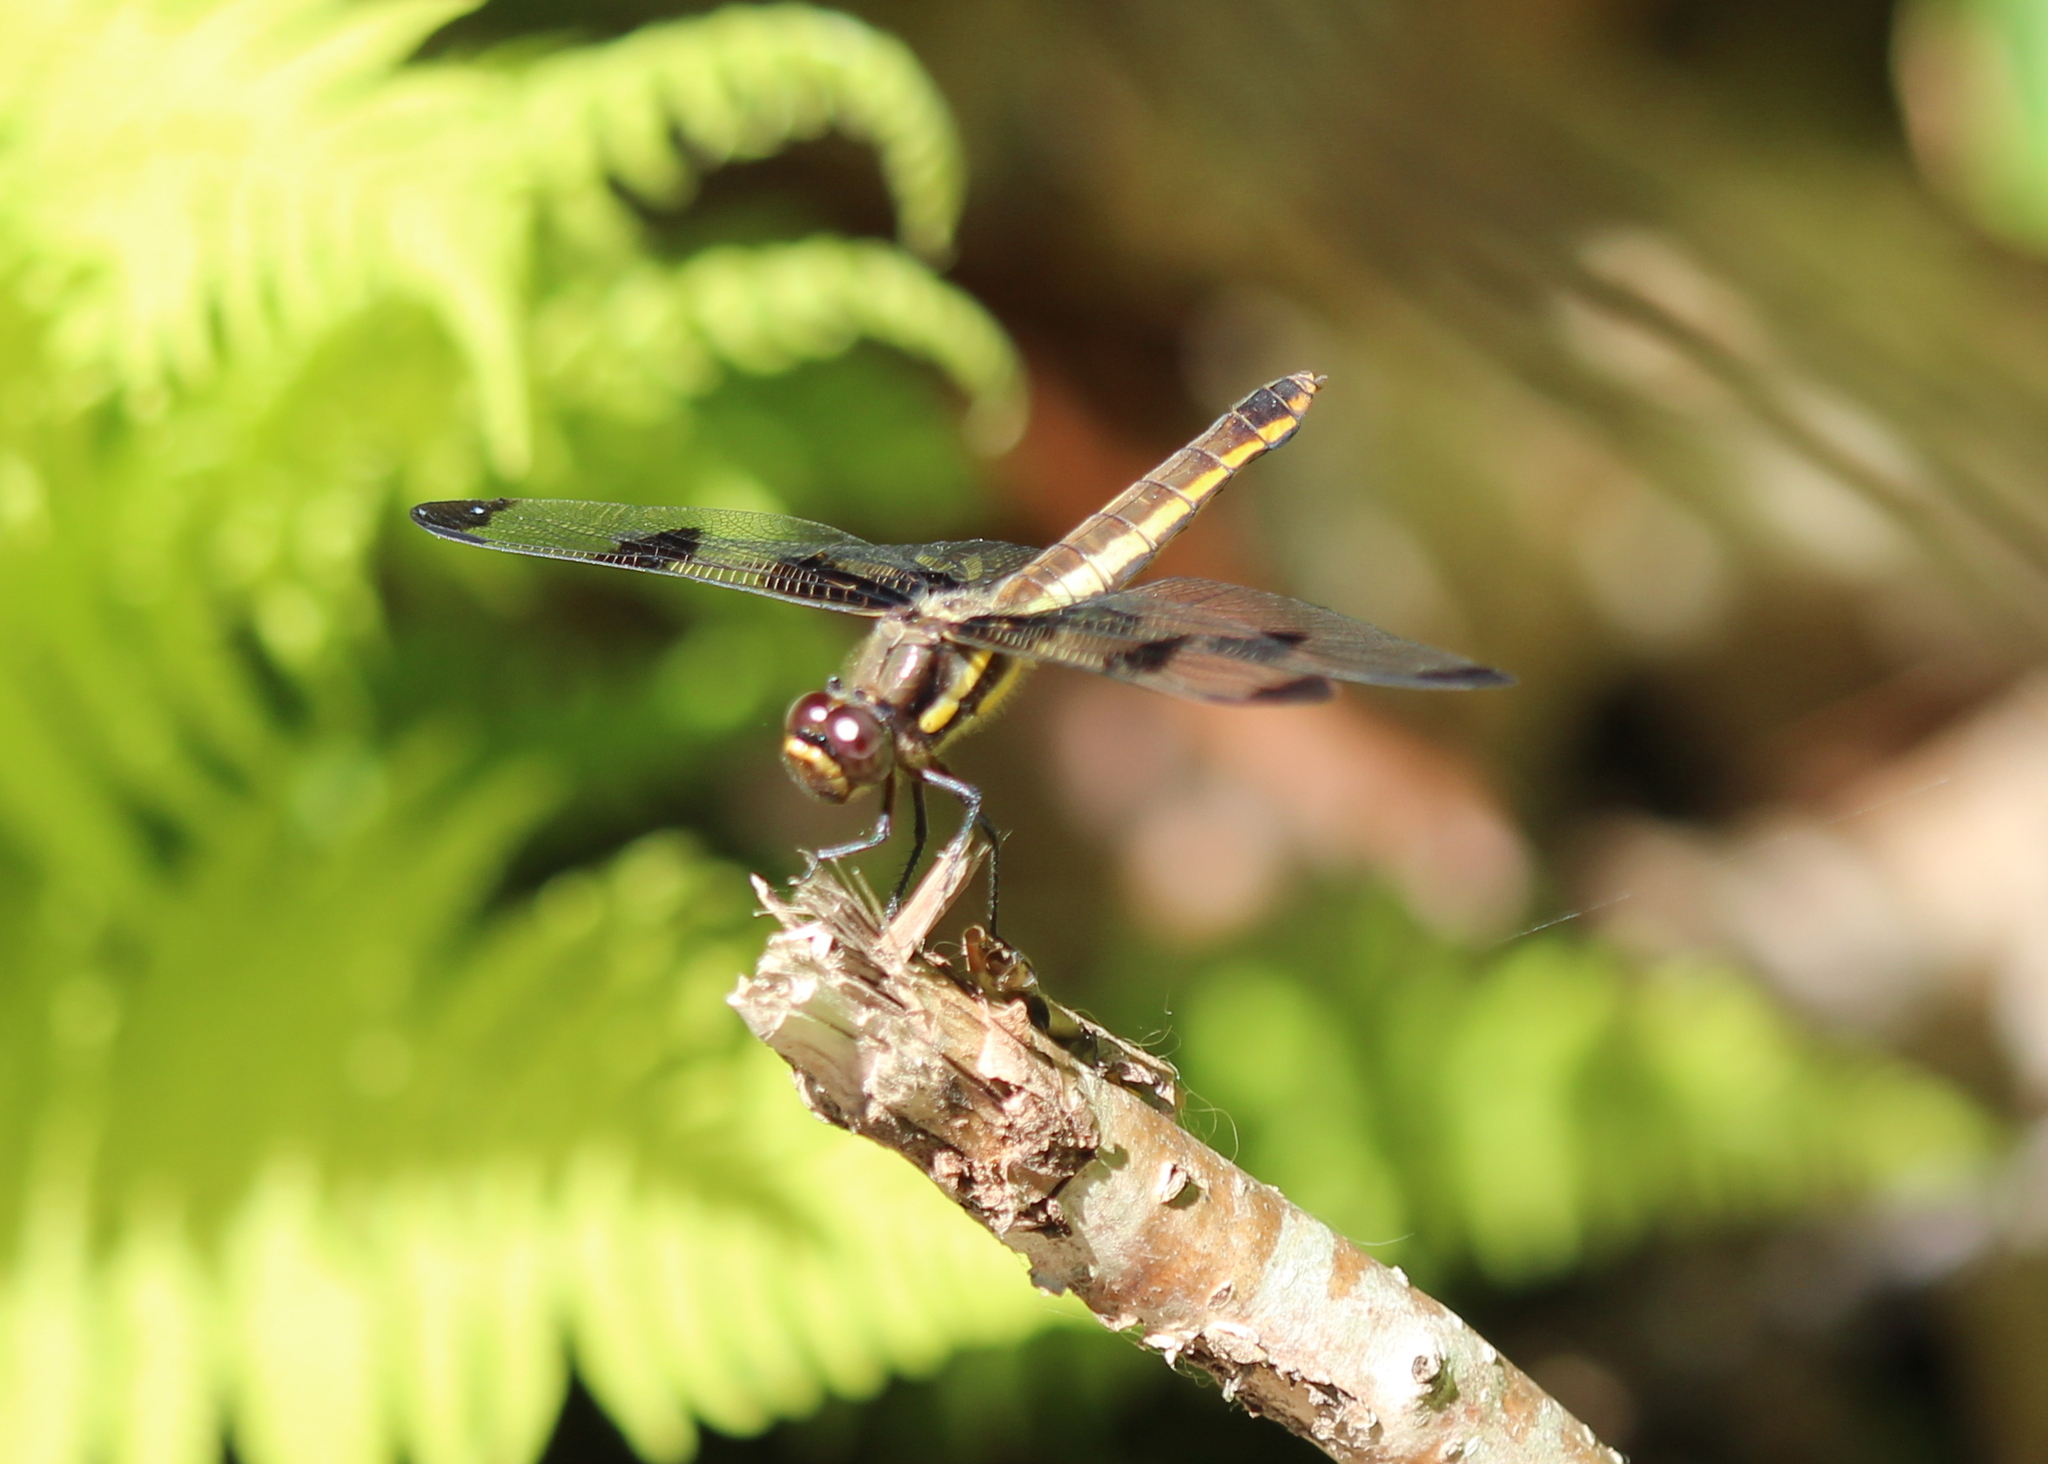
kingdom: Animalia
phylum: Arthropoda
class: Insecta
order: Odonata
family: Libellulidae
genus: Libellula
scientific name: Libellula pulchella
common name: Twelve-spotted skimmer
